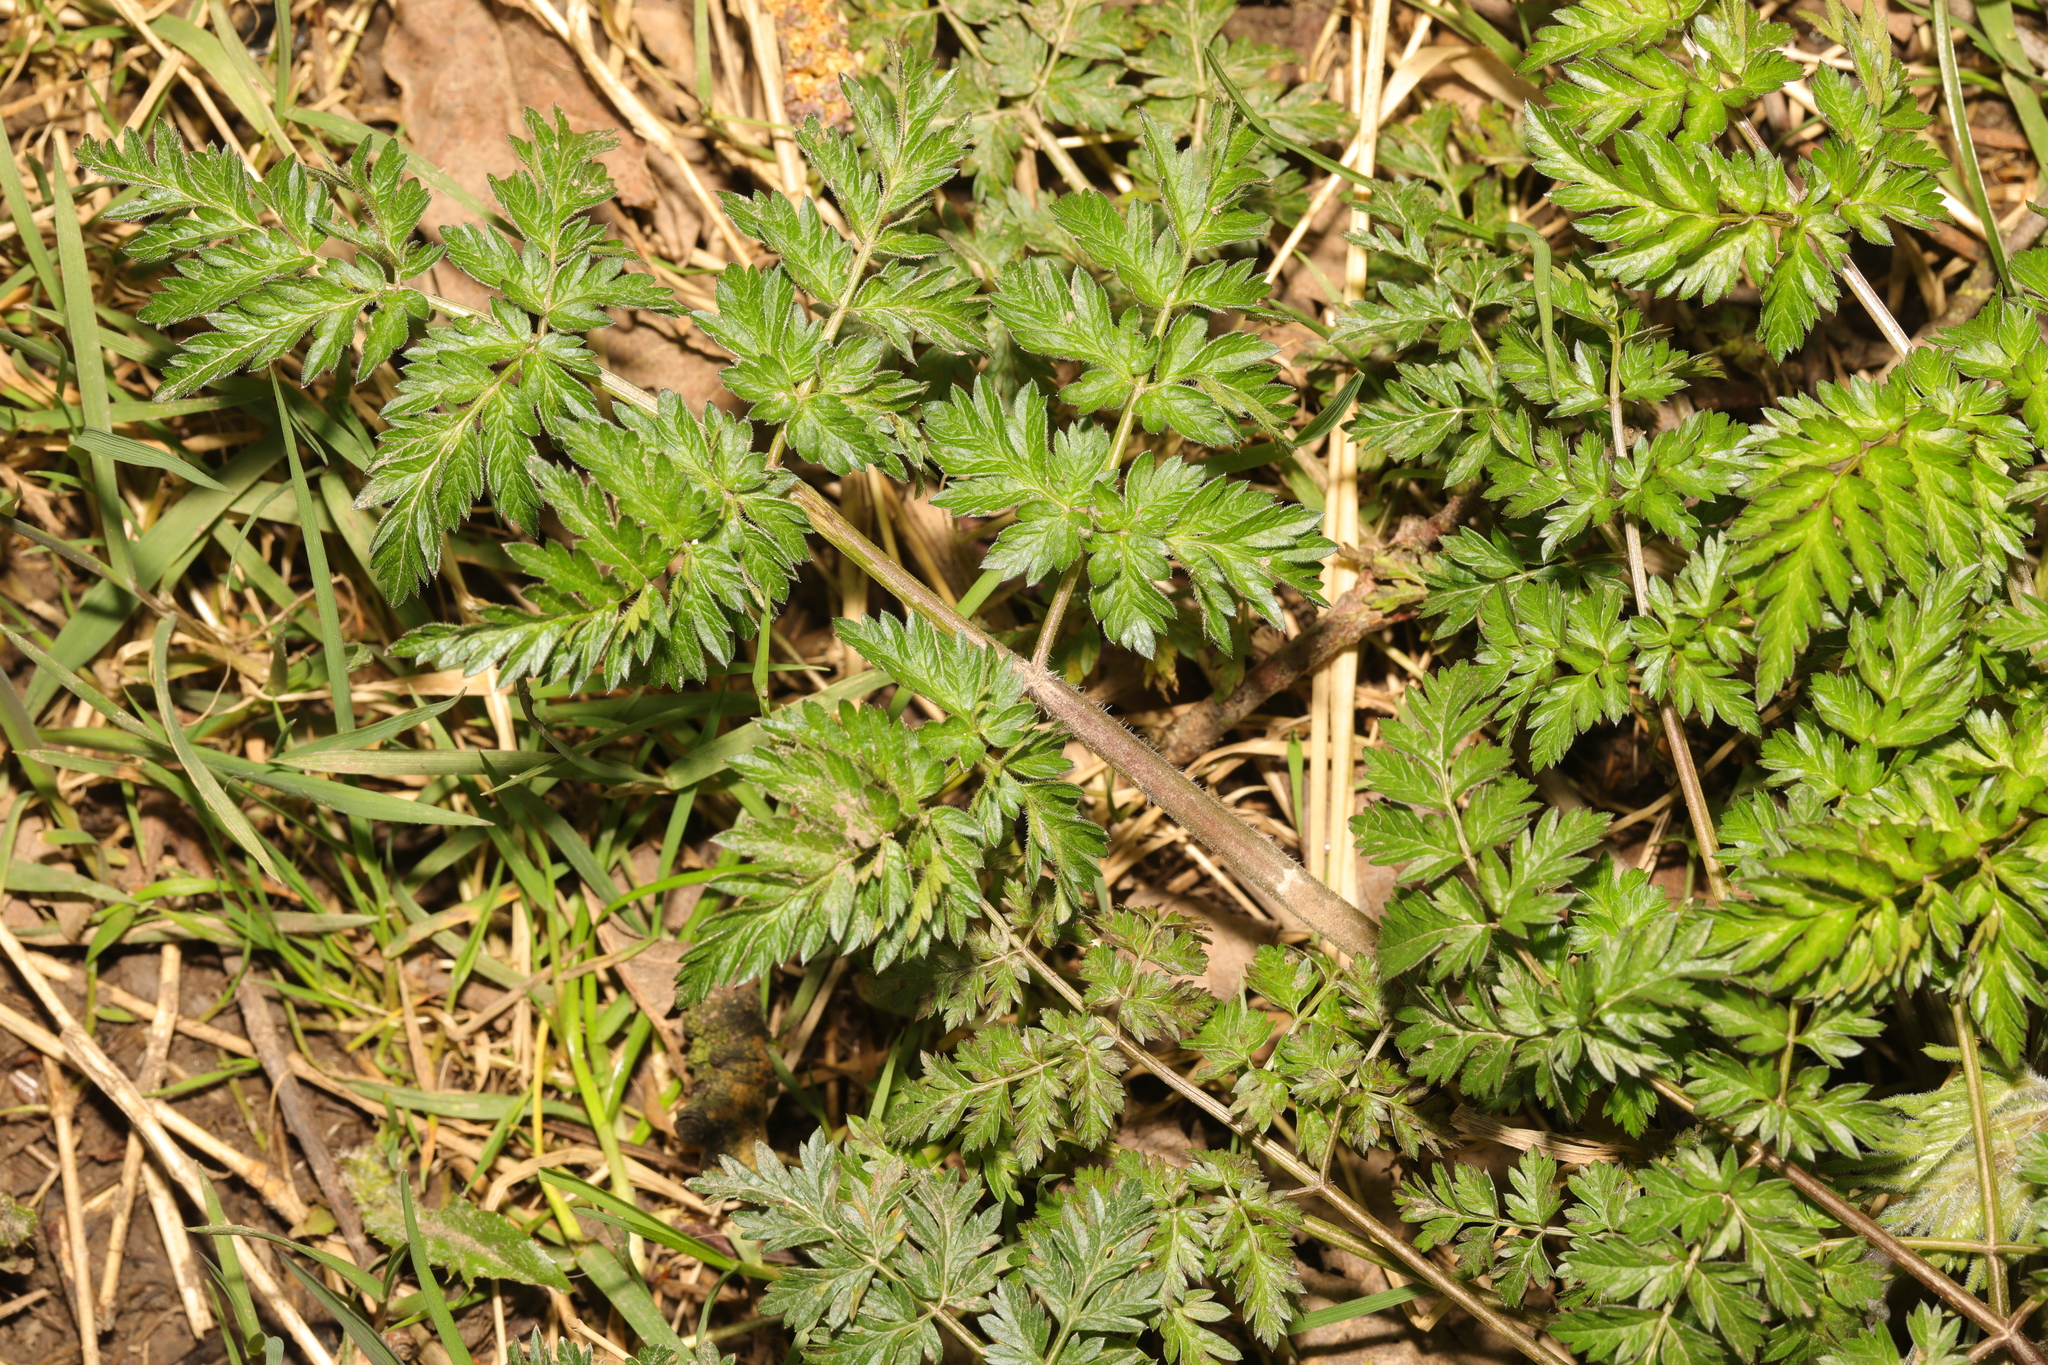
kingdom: Plantae
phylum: Tracheophyta
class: Magnoliopsida
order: Apiales
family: Apiaceae
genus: Anthriscus
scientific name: Anthriscus sylvestris
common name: Cow parsley
